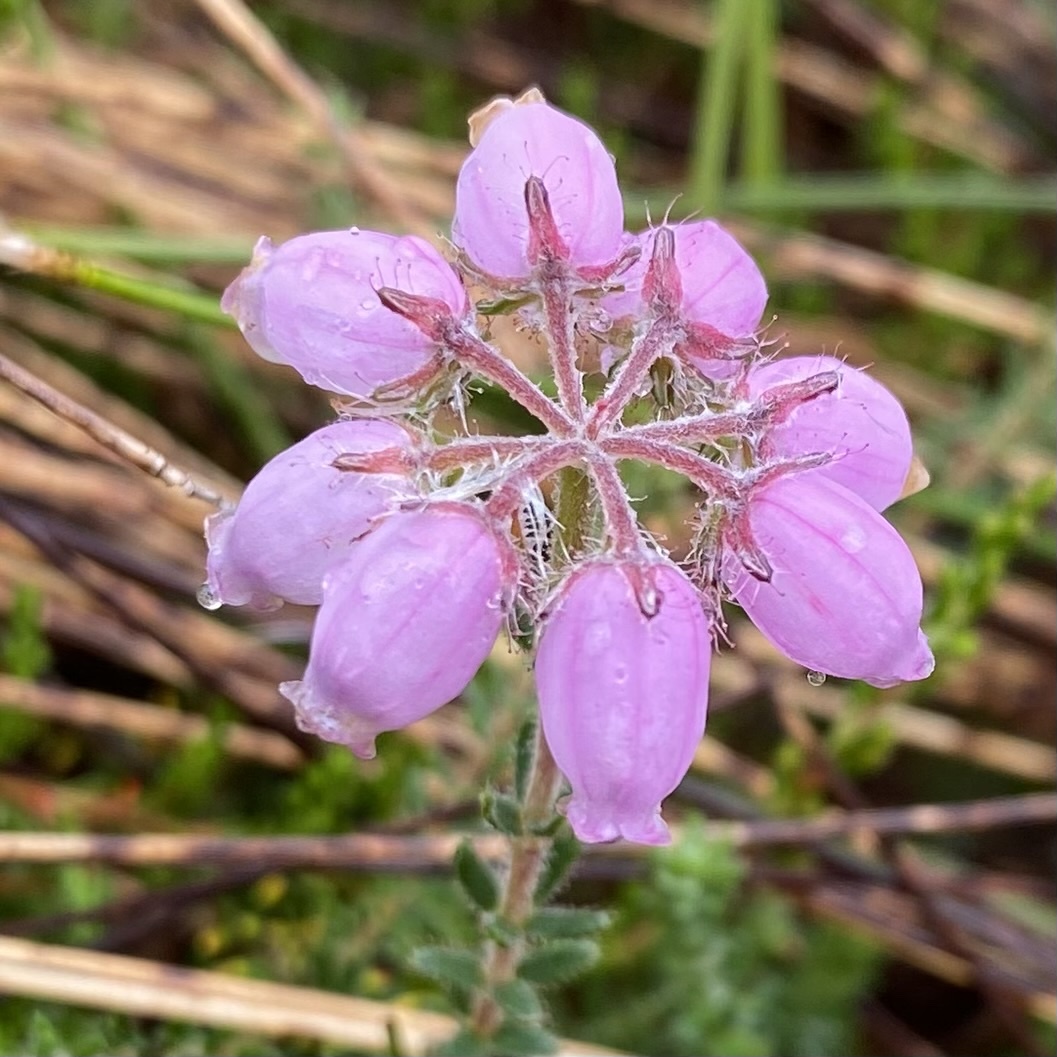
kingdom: Plantae
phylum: Tracheophyta
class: Magnoliopsida
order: Ericales
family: Ericaceae
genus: Erica
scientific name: Erica tetralix
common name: Cross-leaved heath
